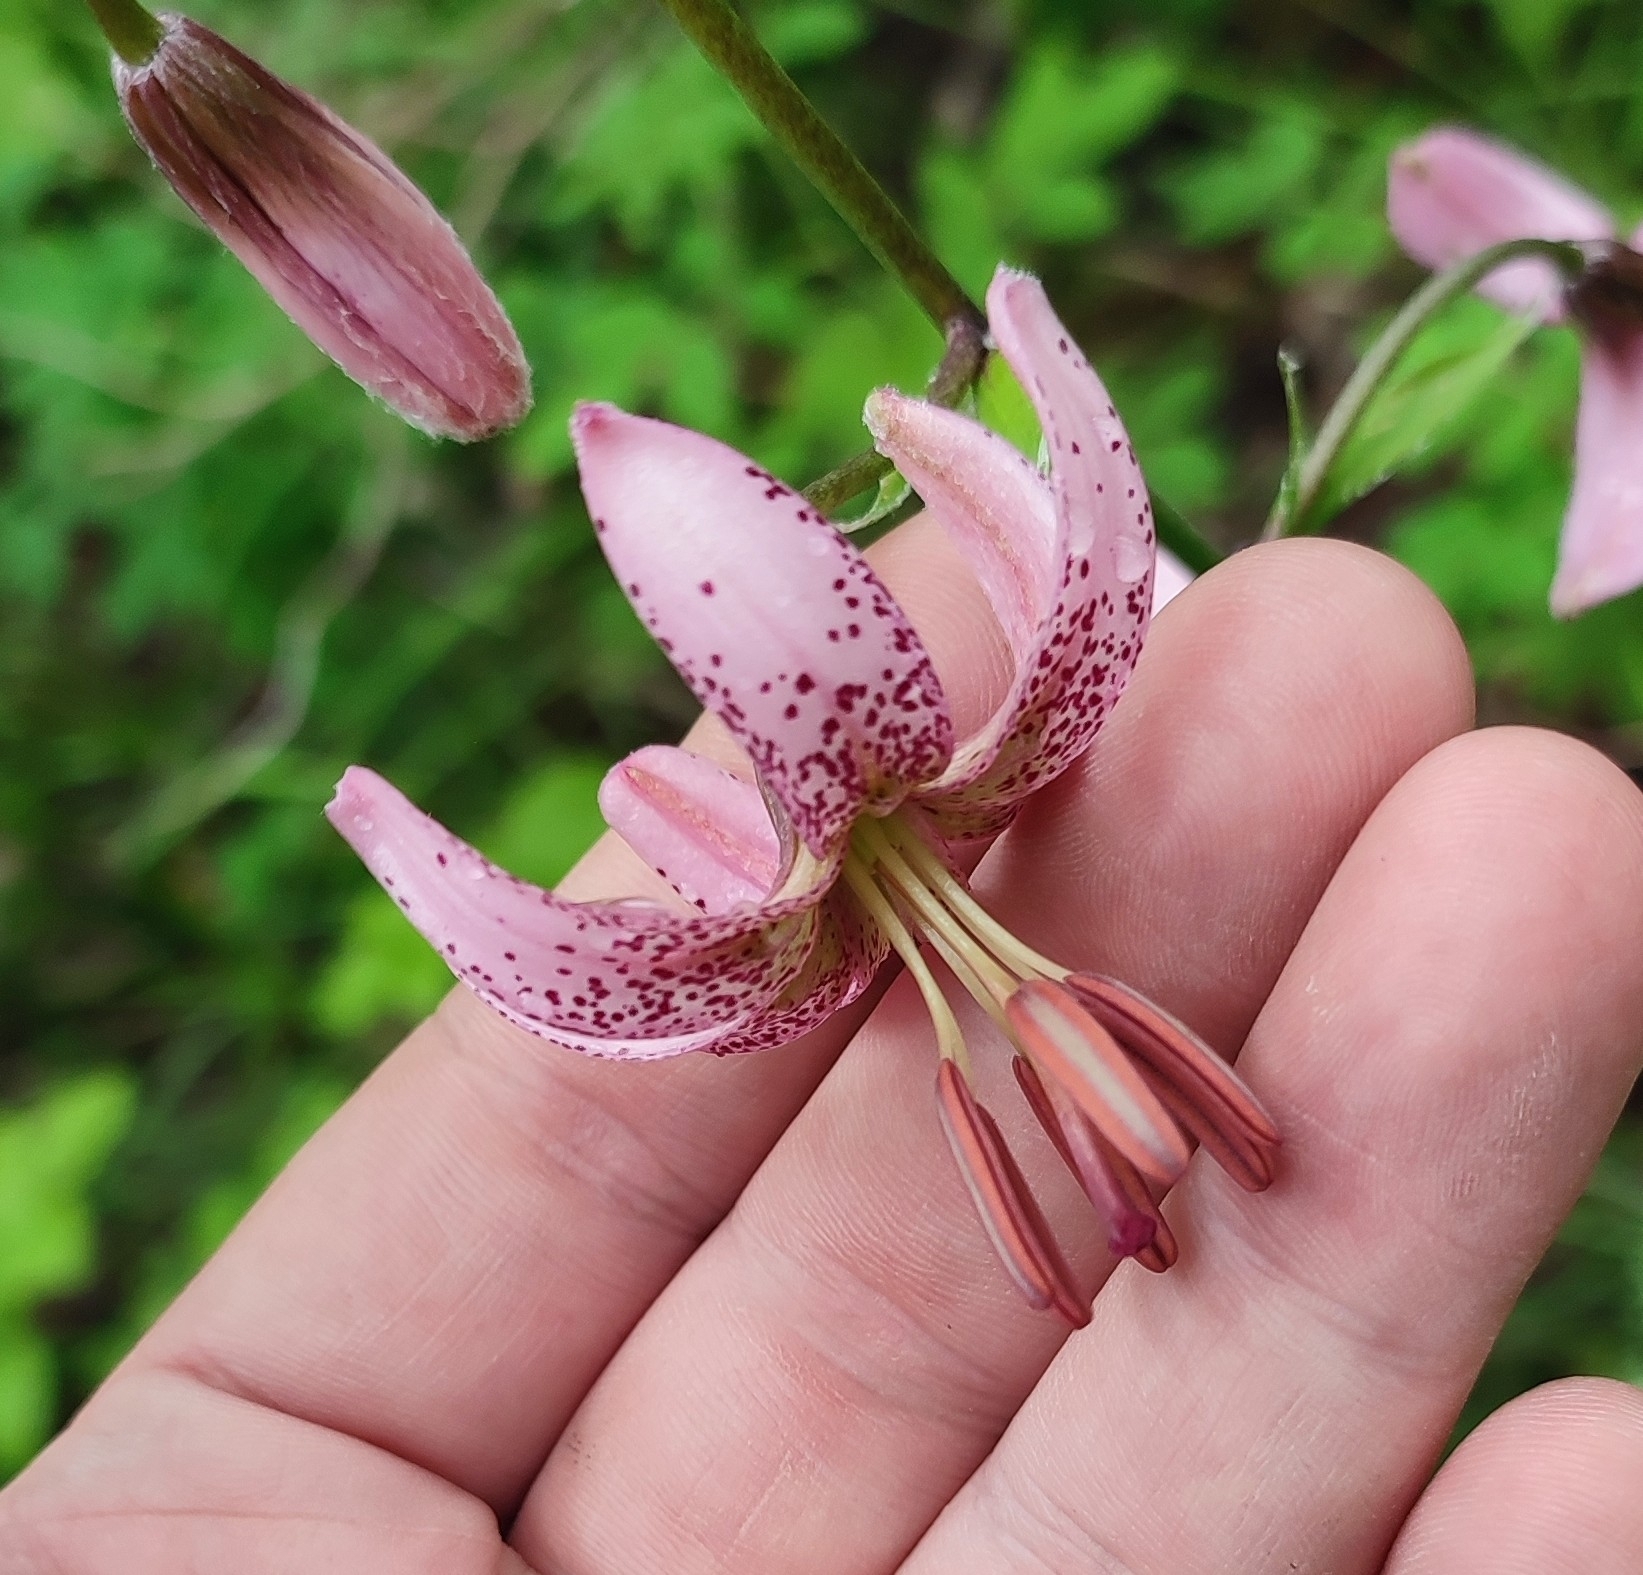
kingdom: Plantae
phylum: Tracheophyta
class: Liliopsida
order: Liliales
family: Liliaceae
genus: Lilium
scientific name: Lilium martagon
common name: Martagon lily
